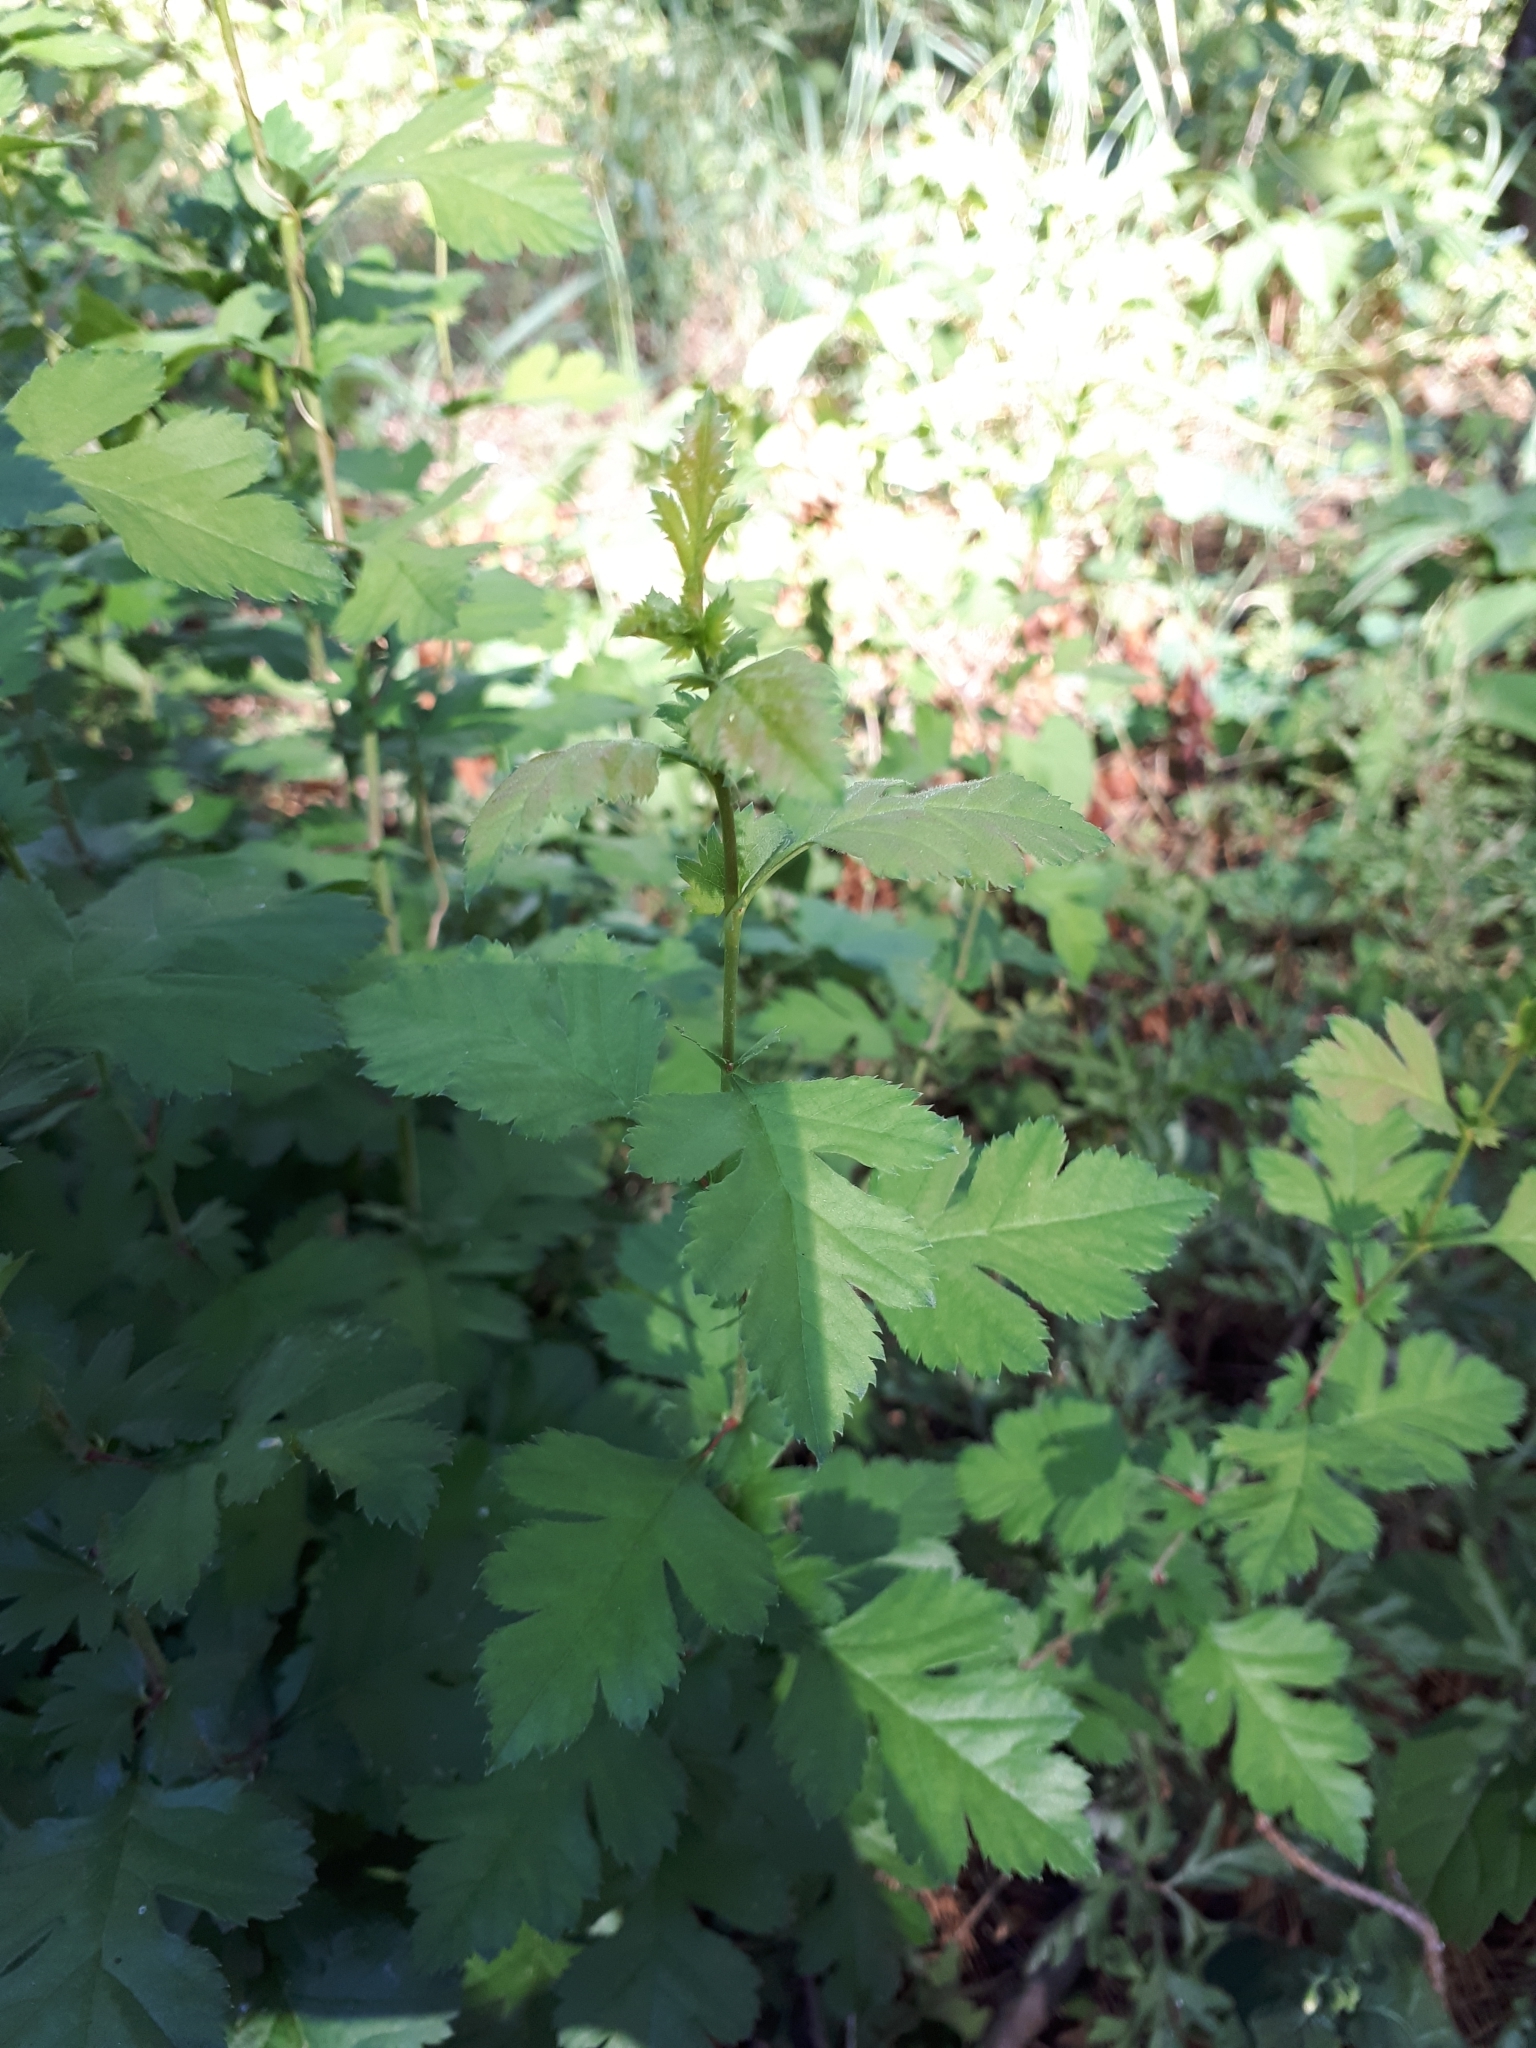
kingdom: Plantae
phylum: Tracheophyta
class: Magnoliopsida
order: Rosales
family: Rosaceae
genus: Crataegus
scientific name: Crataegus monogyna
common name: Hawthorn
